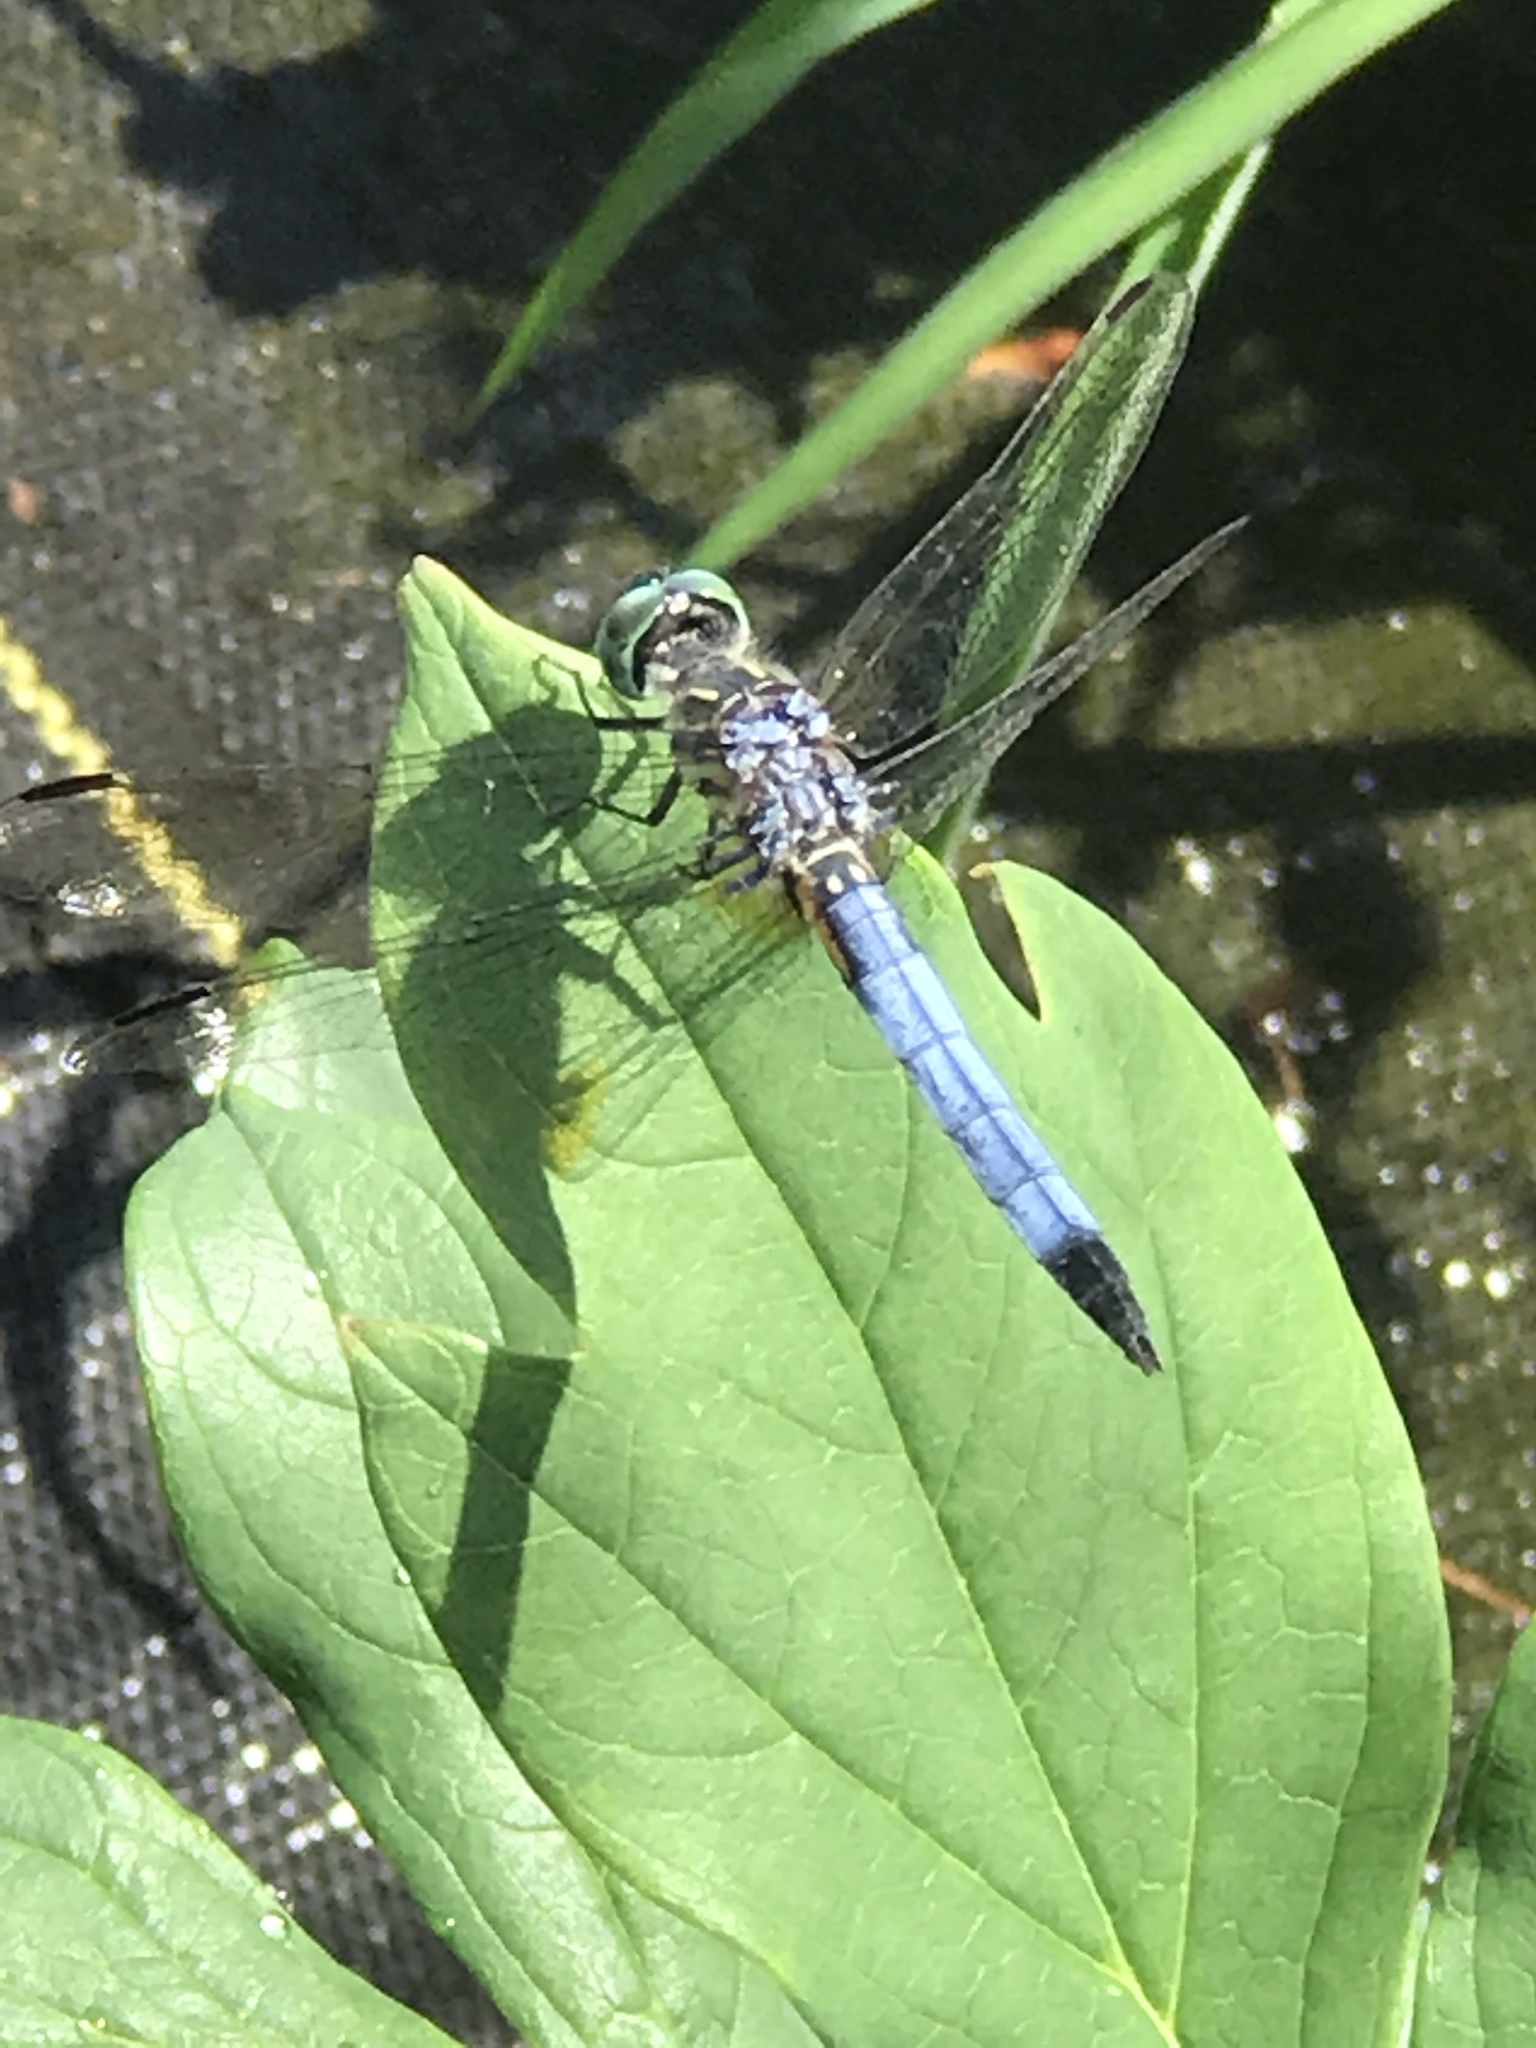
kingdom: Animalia
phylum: Arthropoda
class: Insecta
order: Odonata
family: Libellulidae
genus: Pachydiplax
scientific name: Pachydiplax longipennis
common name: Blue dasher
